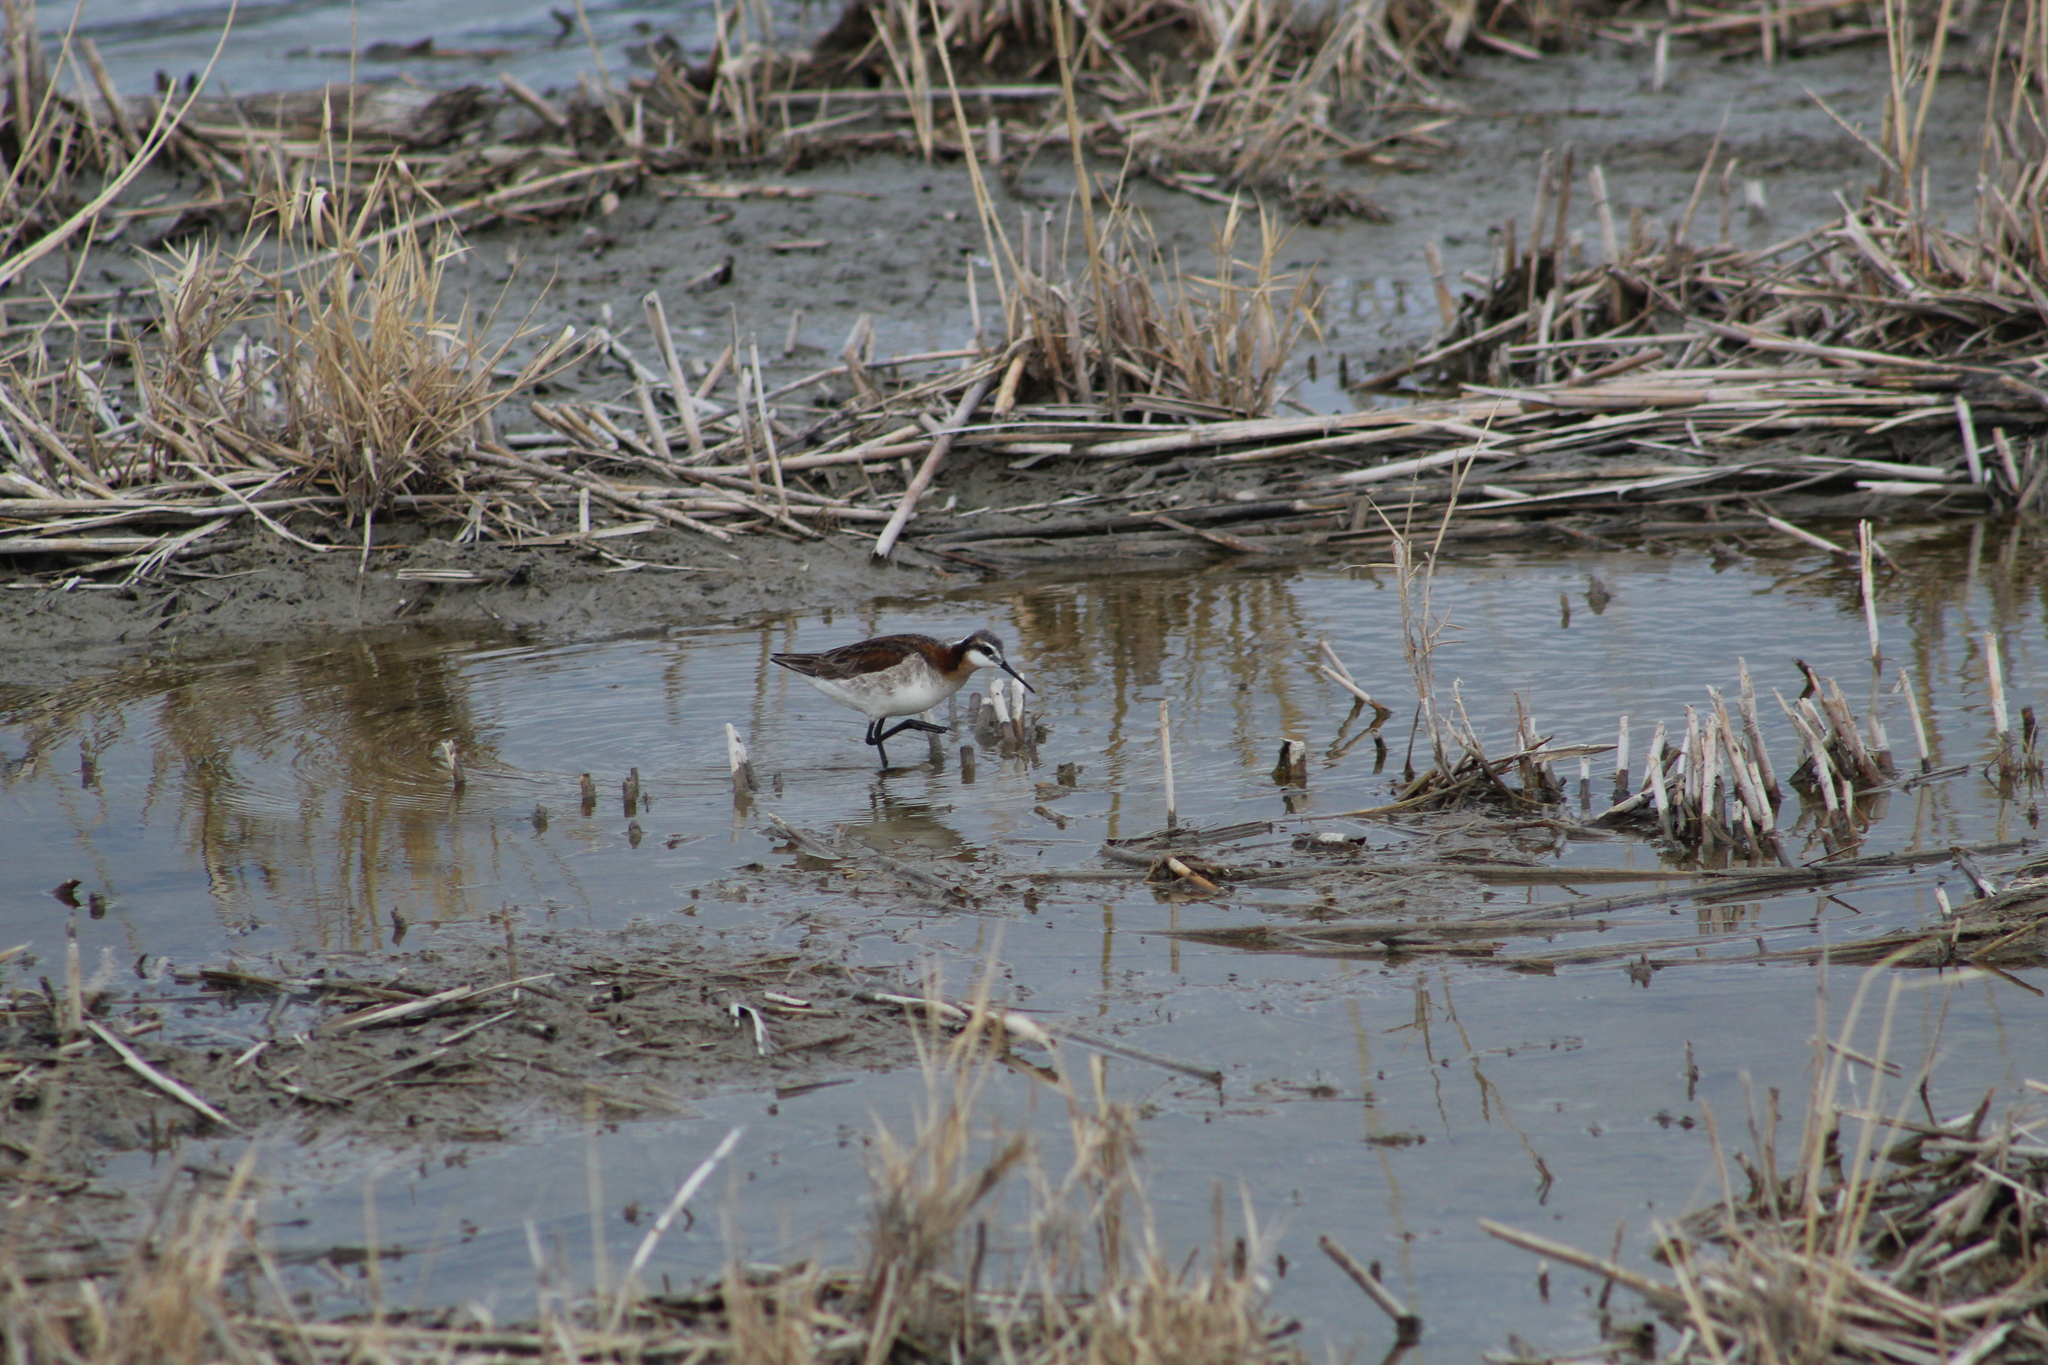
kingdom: Animalia
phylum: Chordata
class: Aves
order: Charadriiformes
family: Scolopacidae
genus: Phalaropus
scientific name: Phalaropus tricolor
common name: Wilson's phalarope
